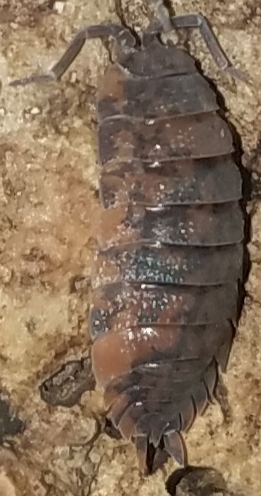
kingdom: Animalia
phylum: Arthropoda
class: Malacostraca
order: Isopoda
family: Porcellionidae
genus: Porcellio
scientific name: Porcellio scaber
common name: Common rough woodlouse
